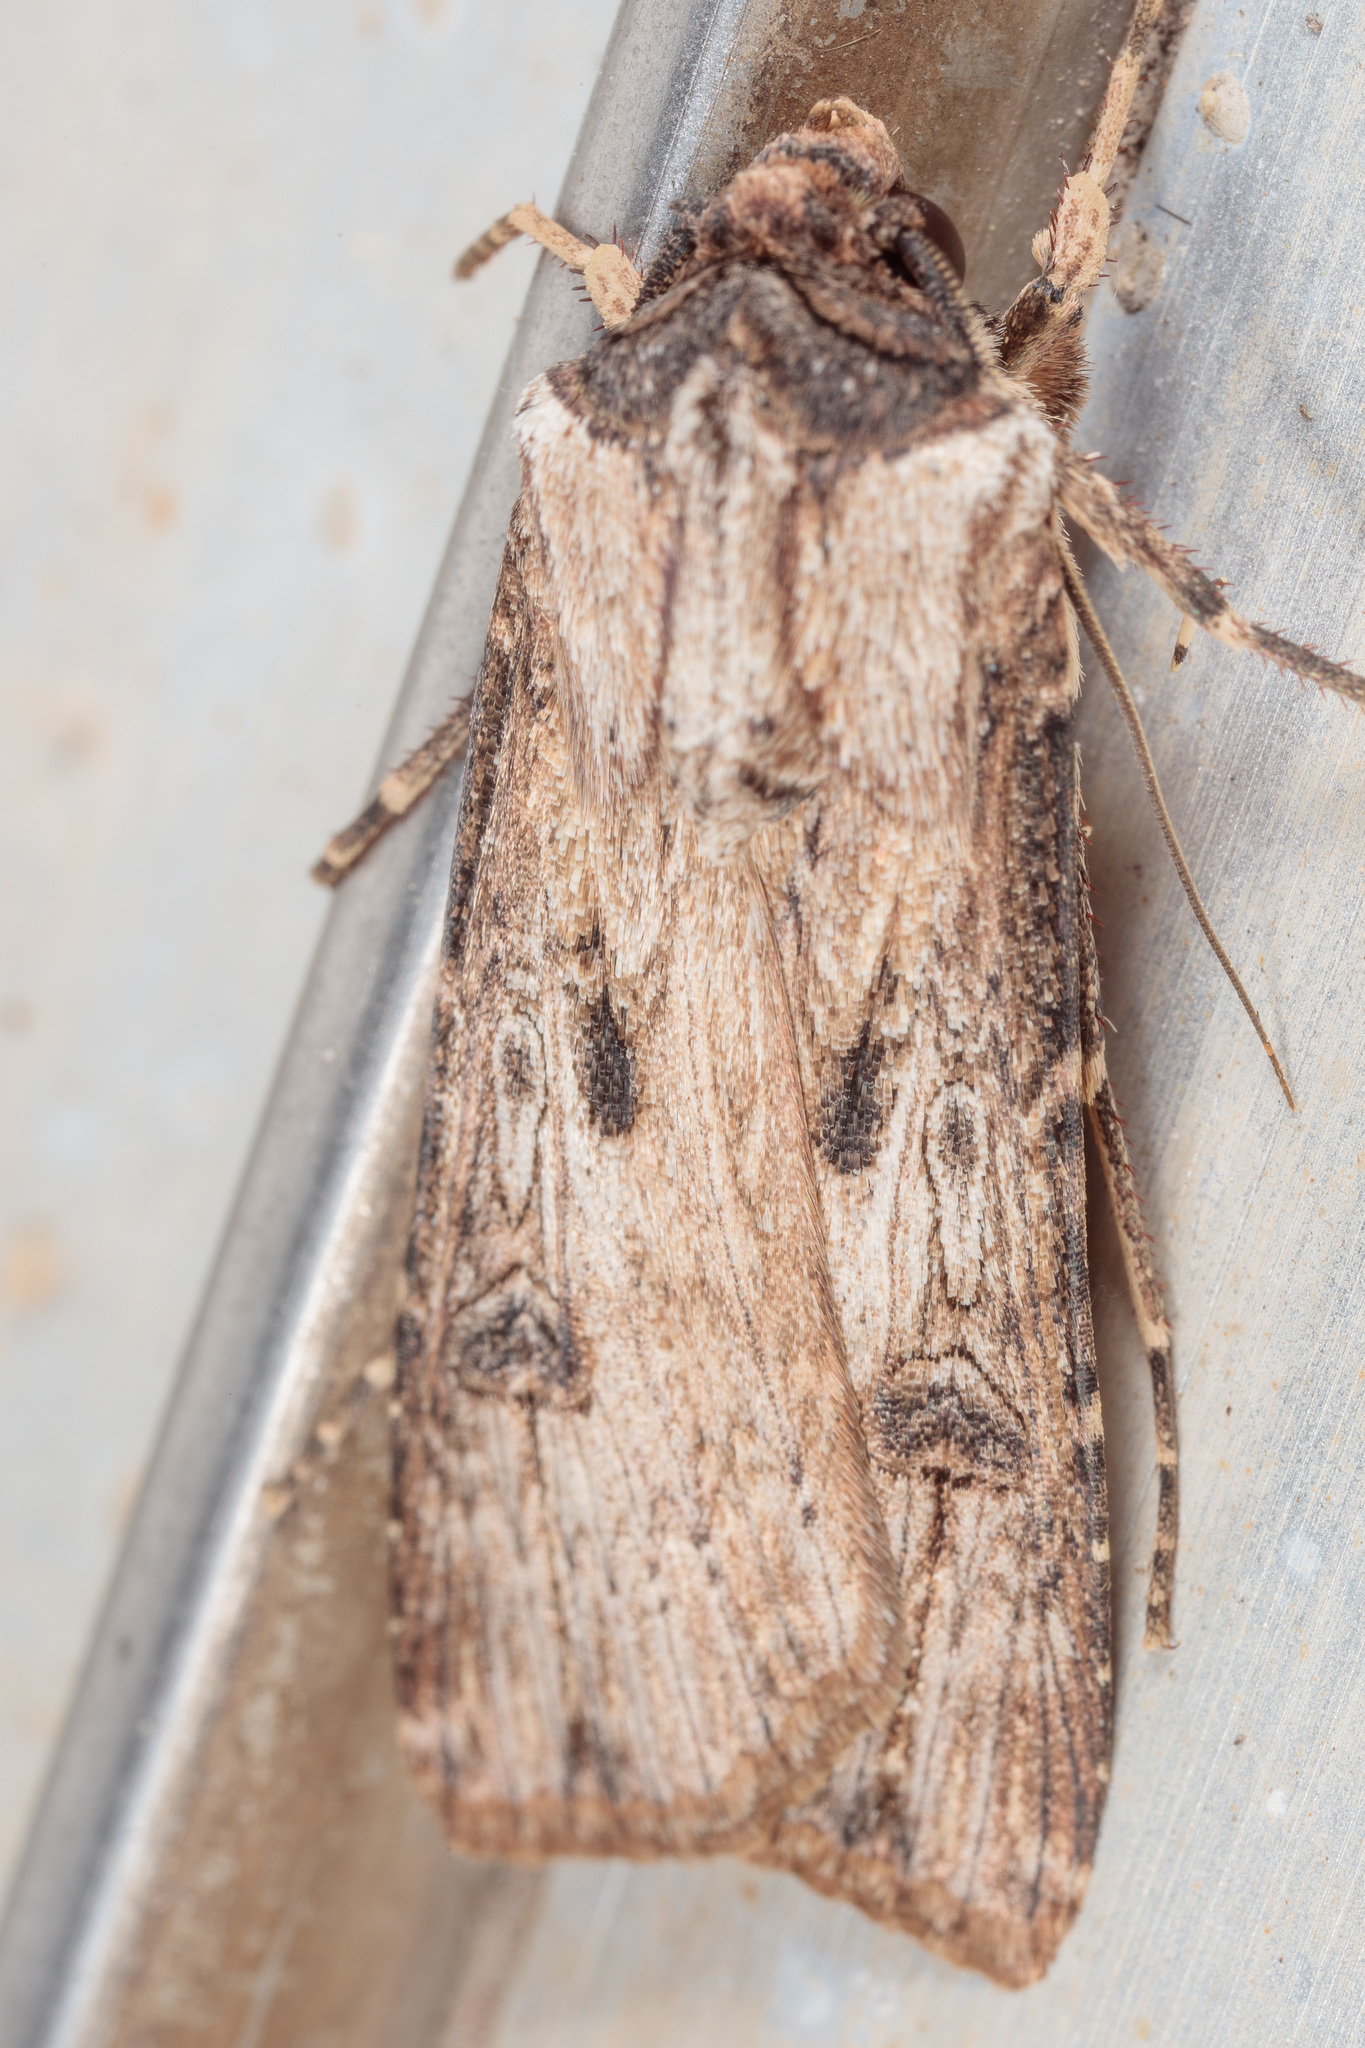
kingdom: Animalia
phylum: Arthropoda
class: Insecta
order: Lepidoptera
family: Noctuidae
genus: Agrotis
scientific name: Agrotis malefida
